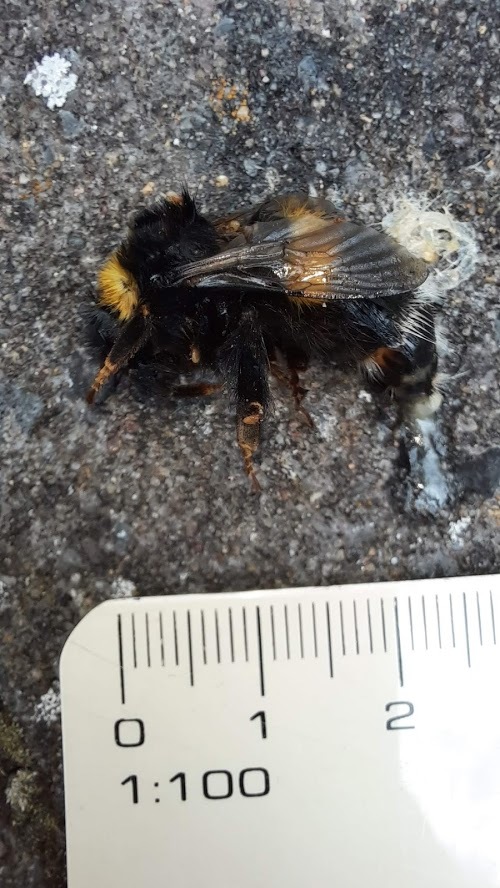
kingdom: Animalia
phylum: Arthropoda
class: Insecta
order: Hymenoptera
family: Apidae
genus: Bombus
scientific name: Bombus terrestris
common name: Buff-tailed bumblebee
